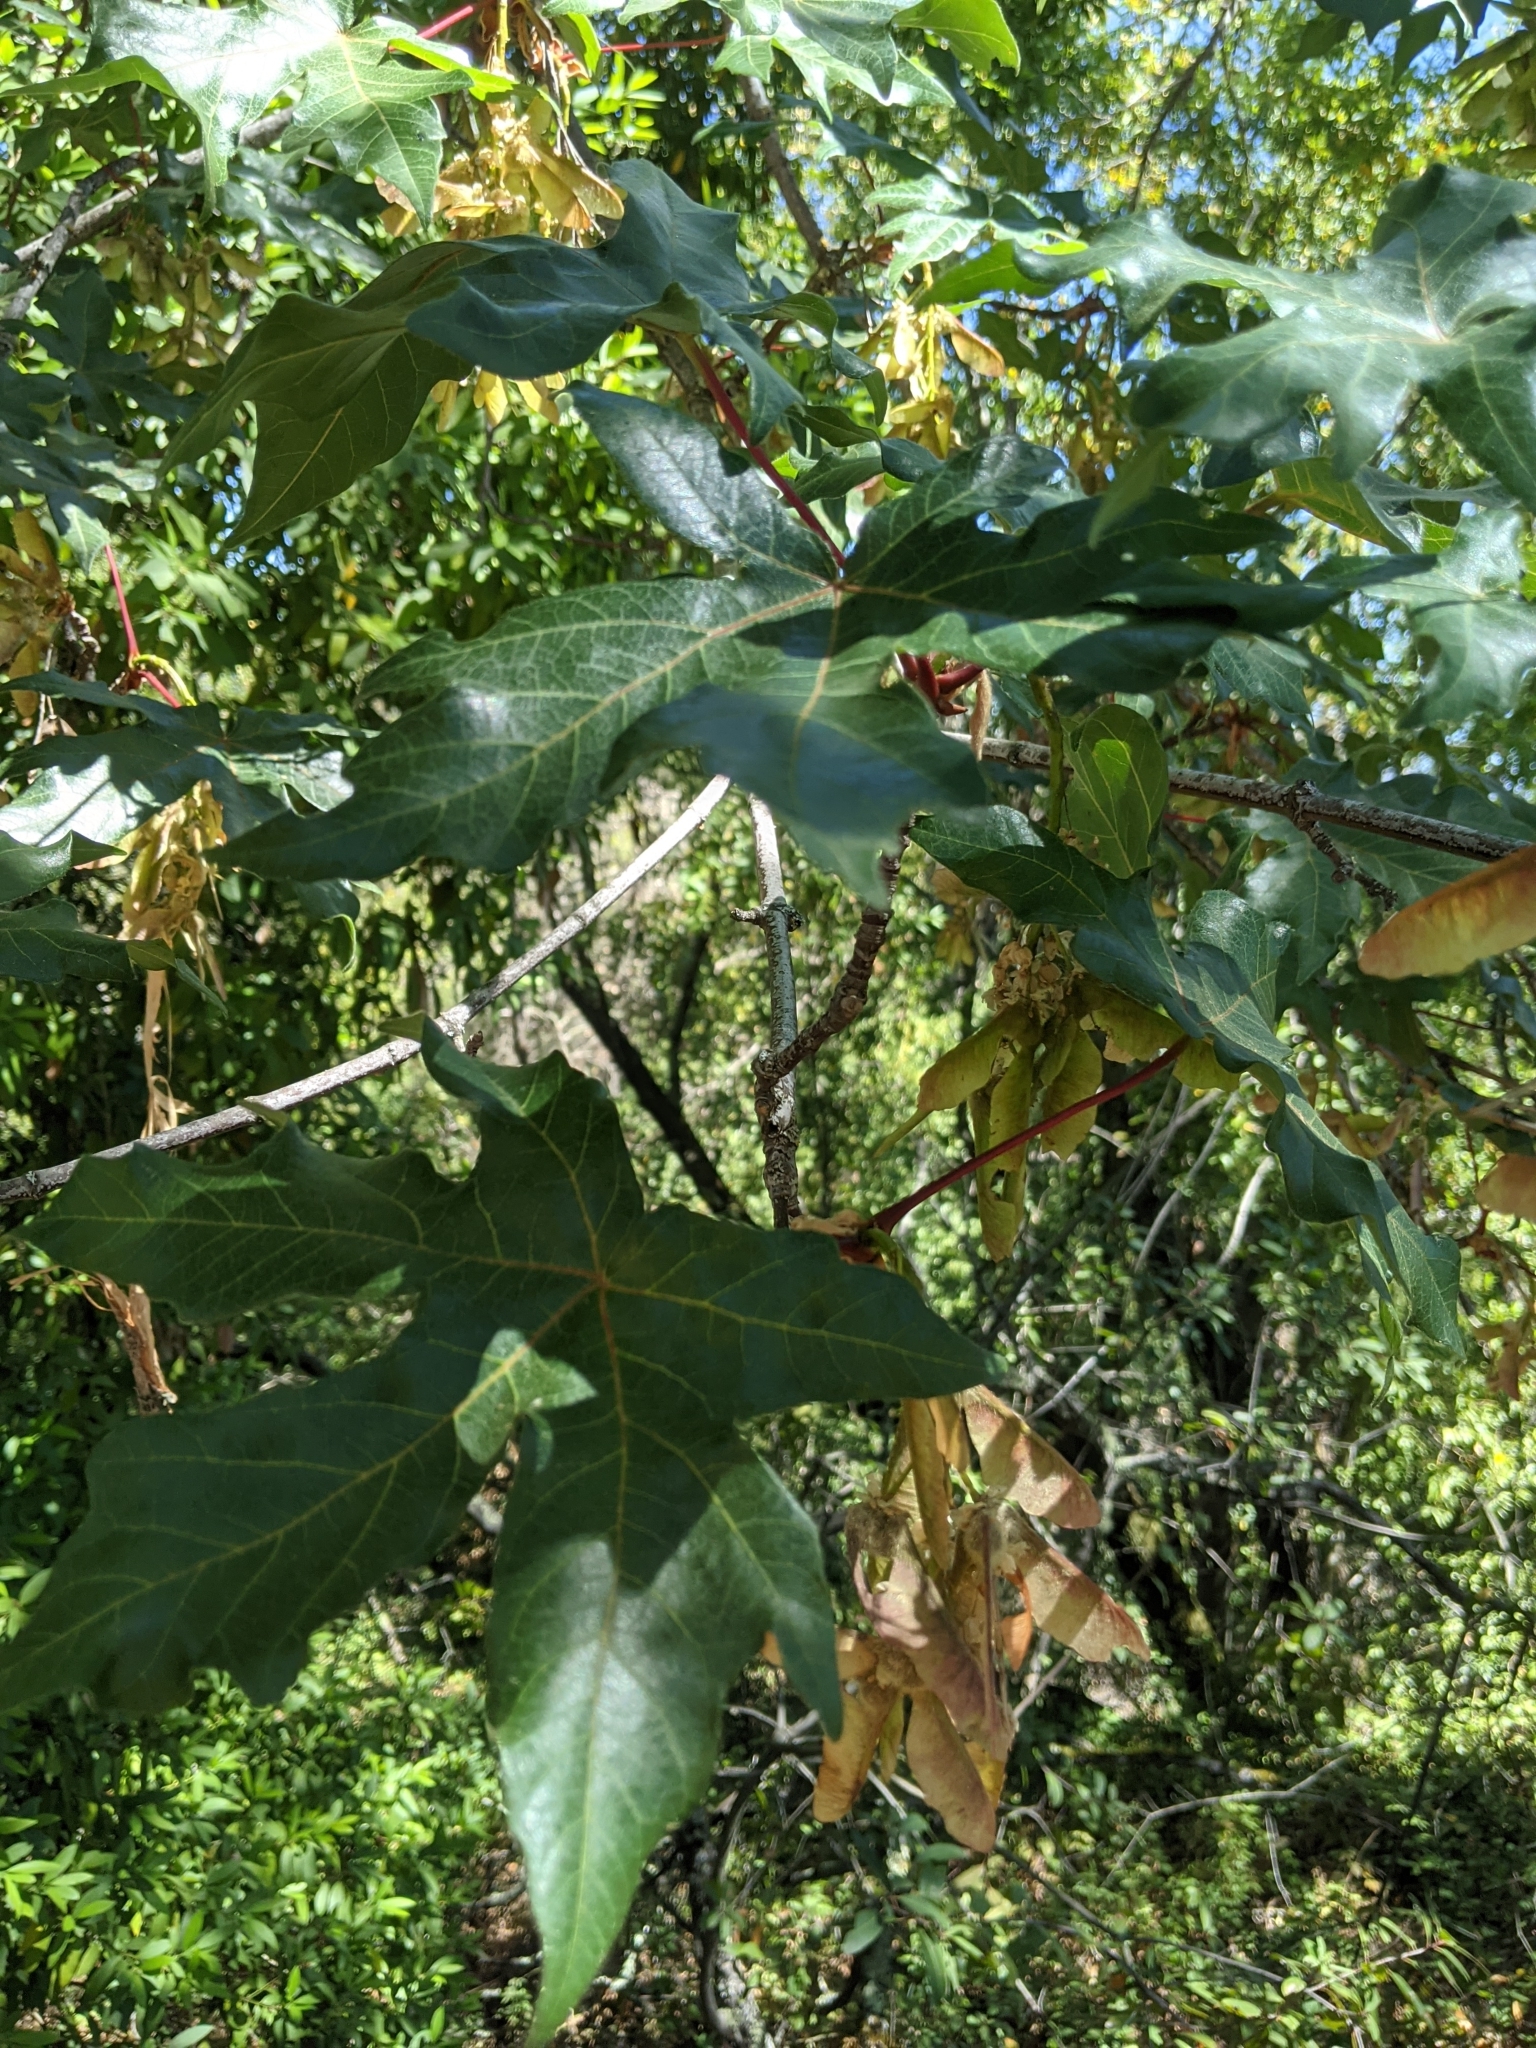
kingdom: Plantae
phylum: Tracheophyta
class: Magnoliopsida
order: Sapindales
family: Sapindaceae
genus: Acer
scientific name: Acer macrophyllum
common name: Oregon maple
